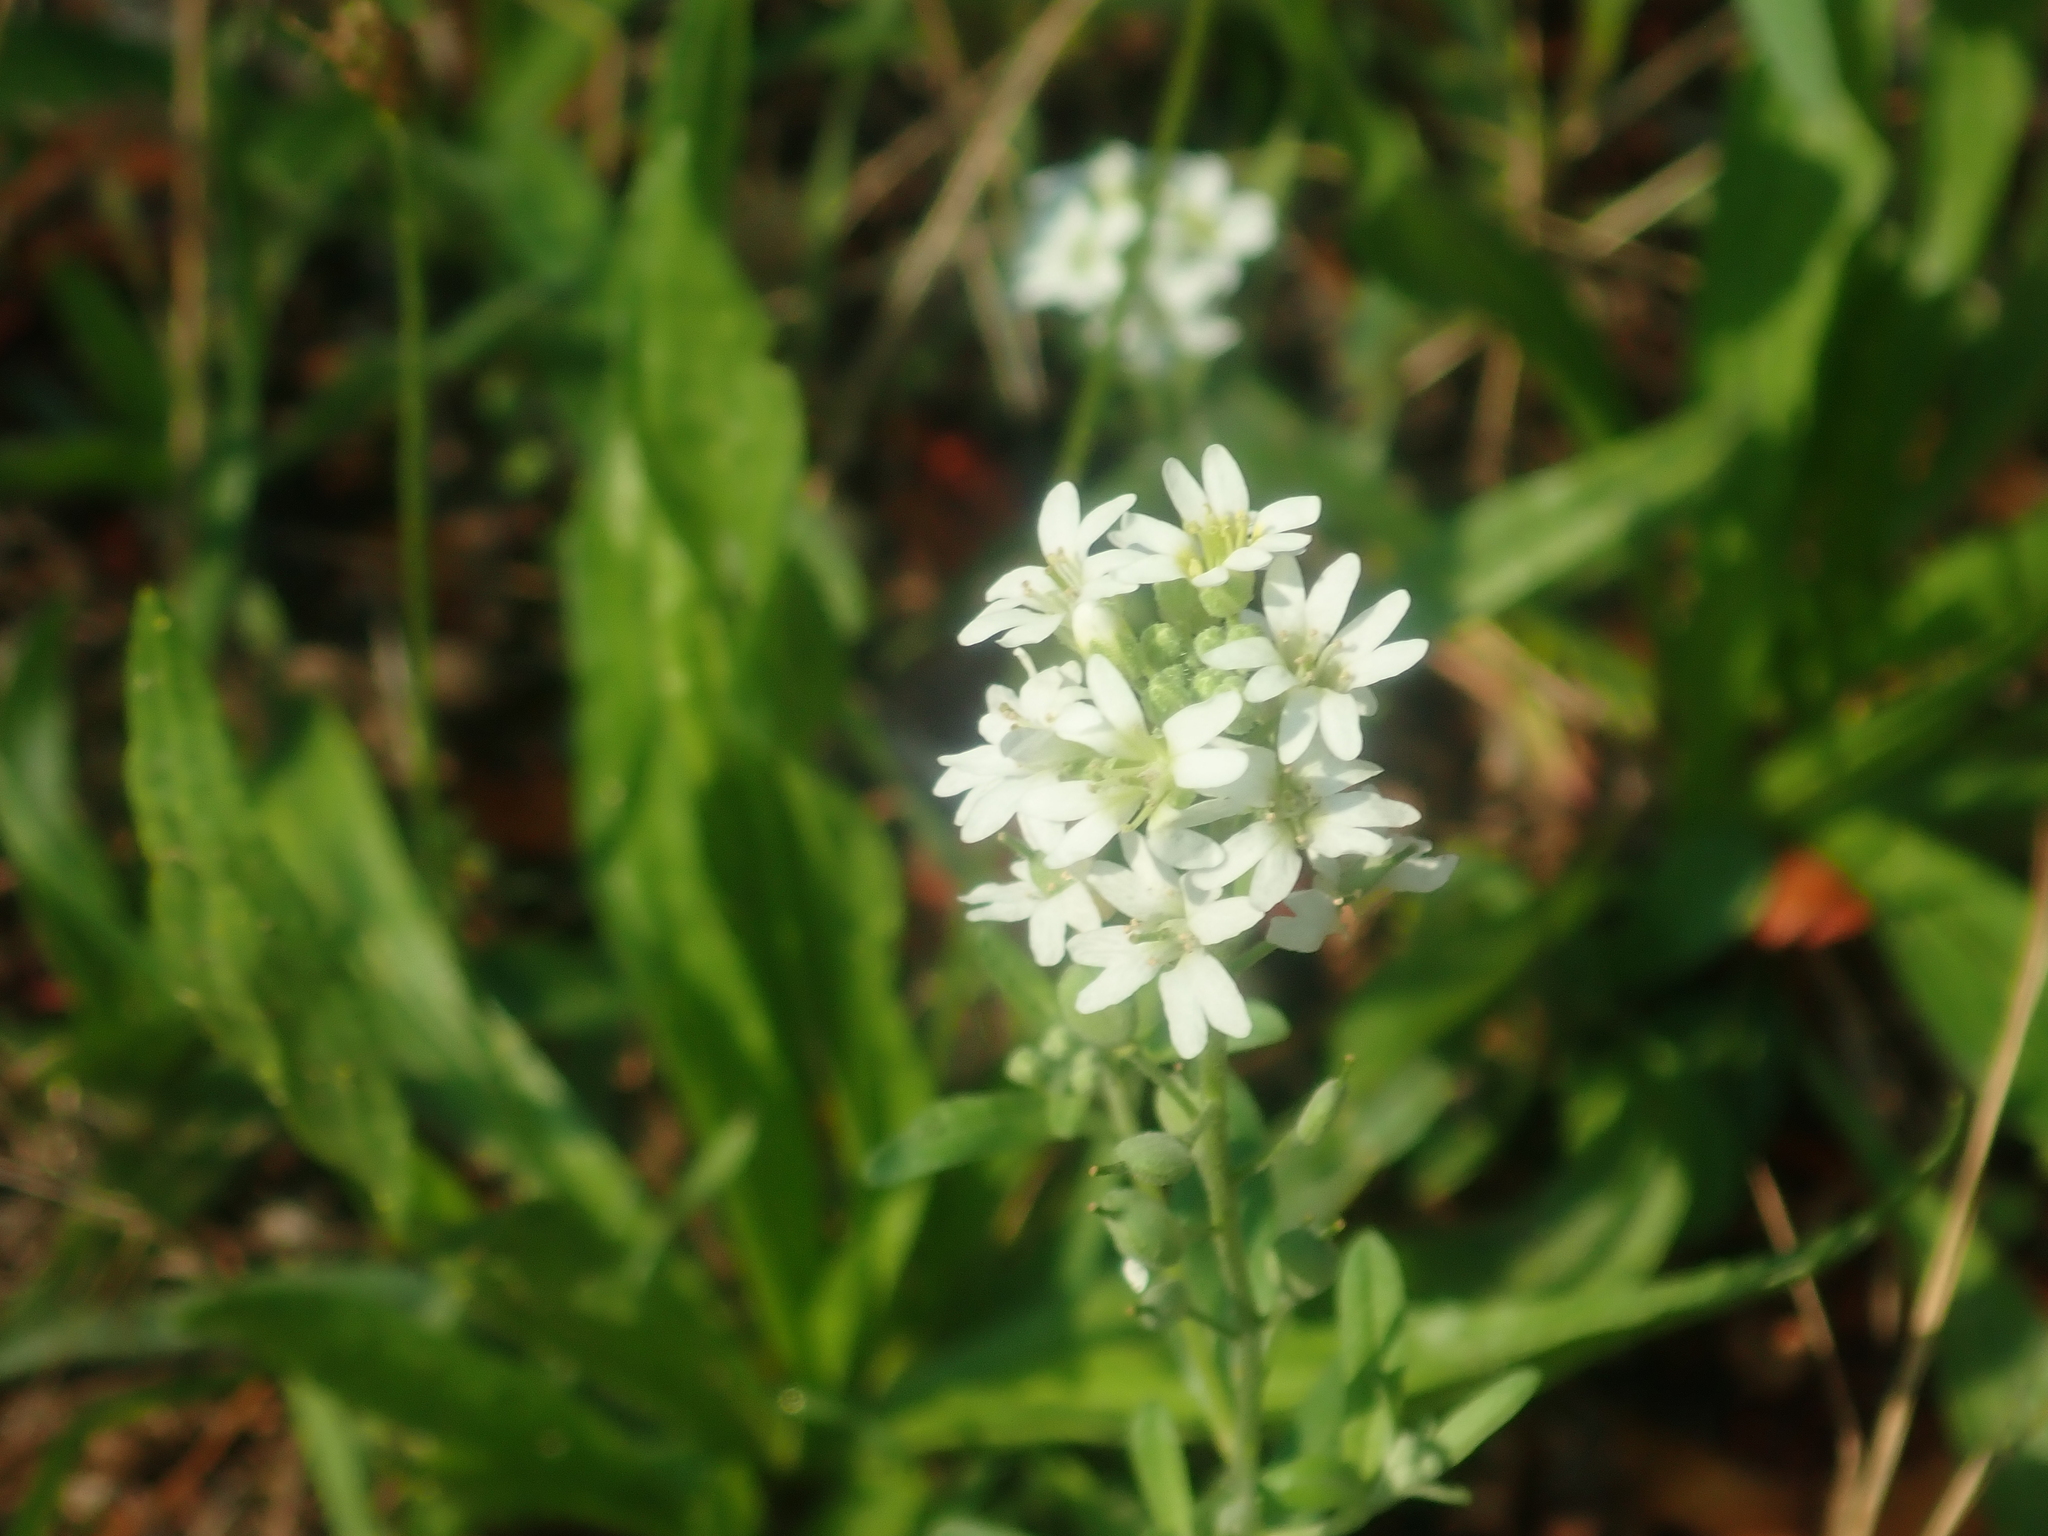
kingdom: Plantae
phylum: Tracheophyta
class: Magnoliopsida
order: Brassicales
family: Brassicaceae
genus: Berteroa
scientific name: Berteroa incana
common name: Hoary alison
